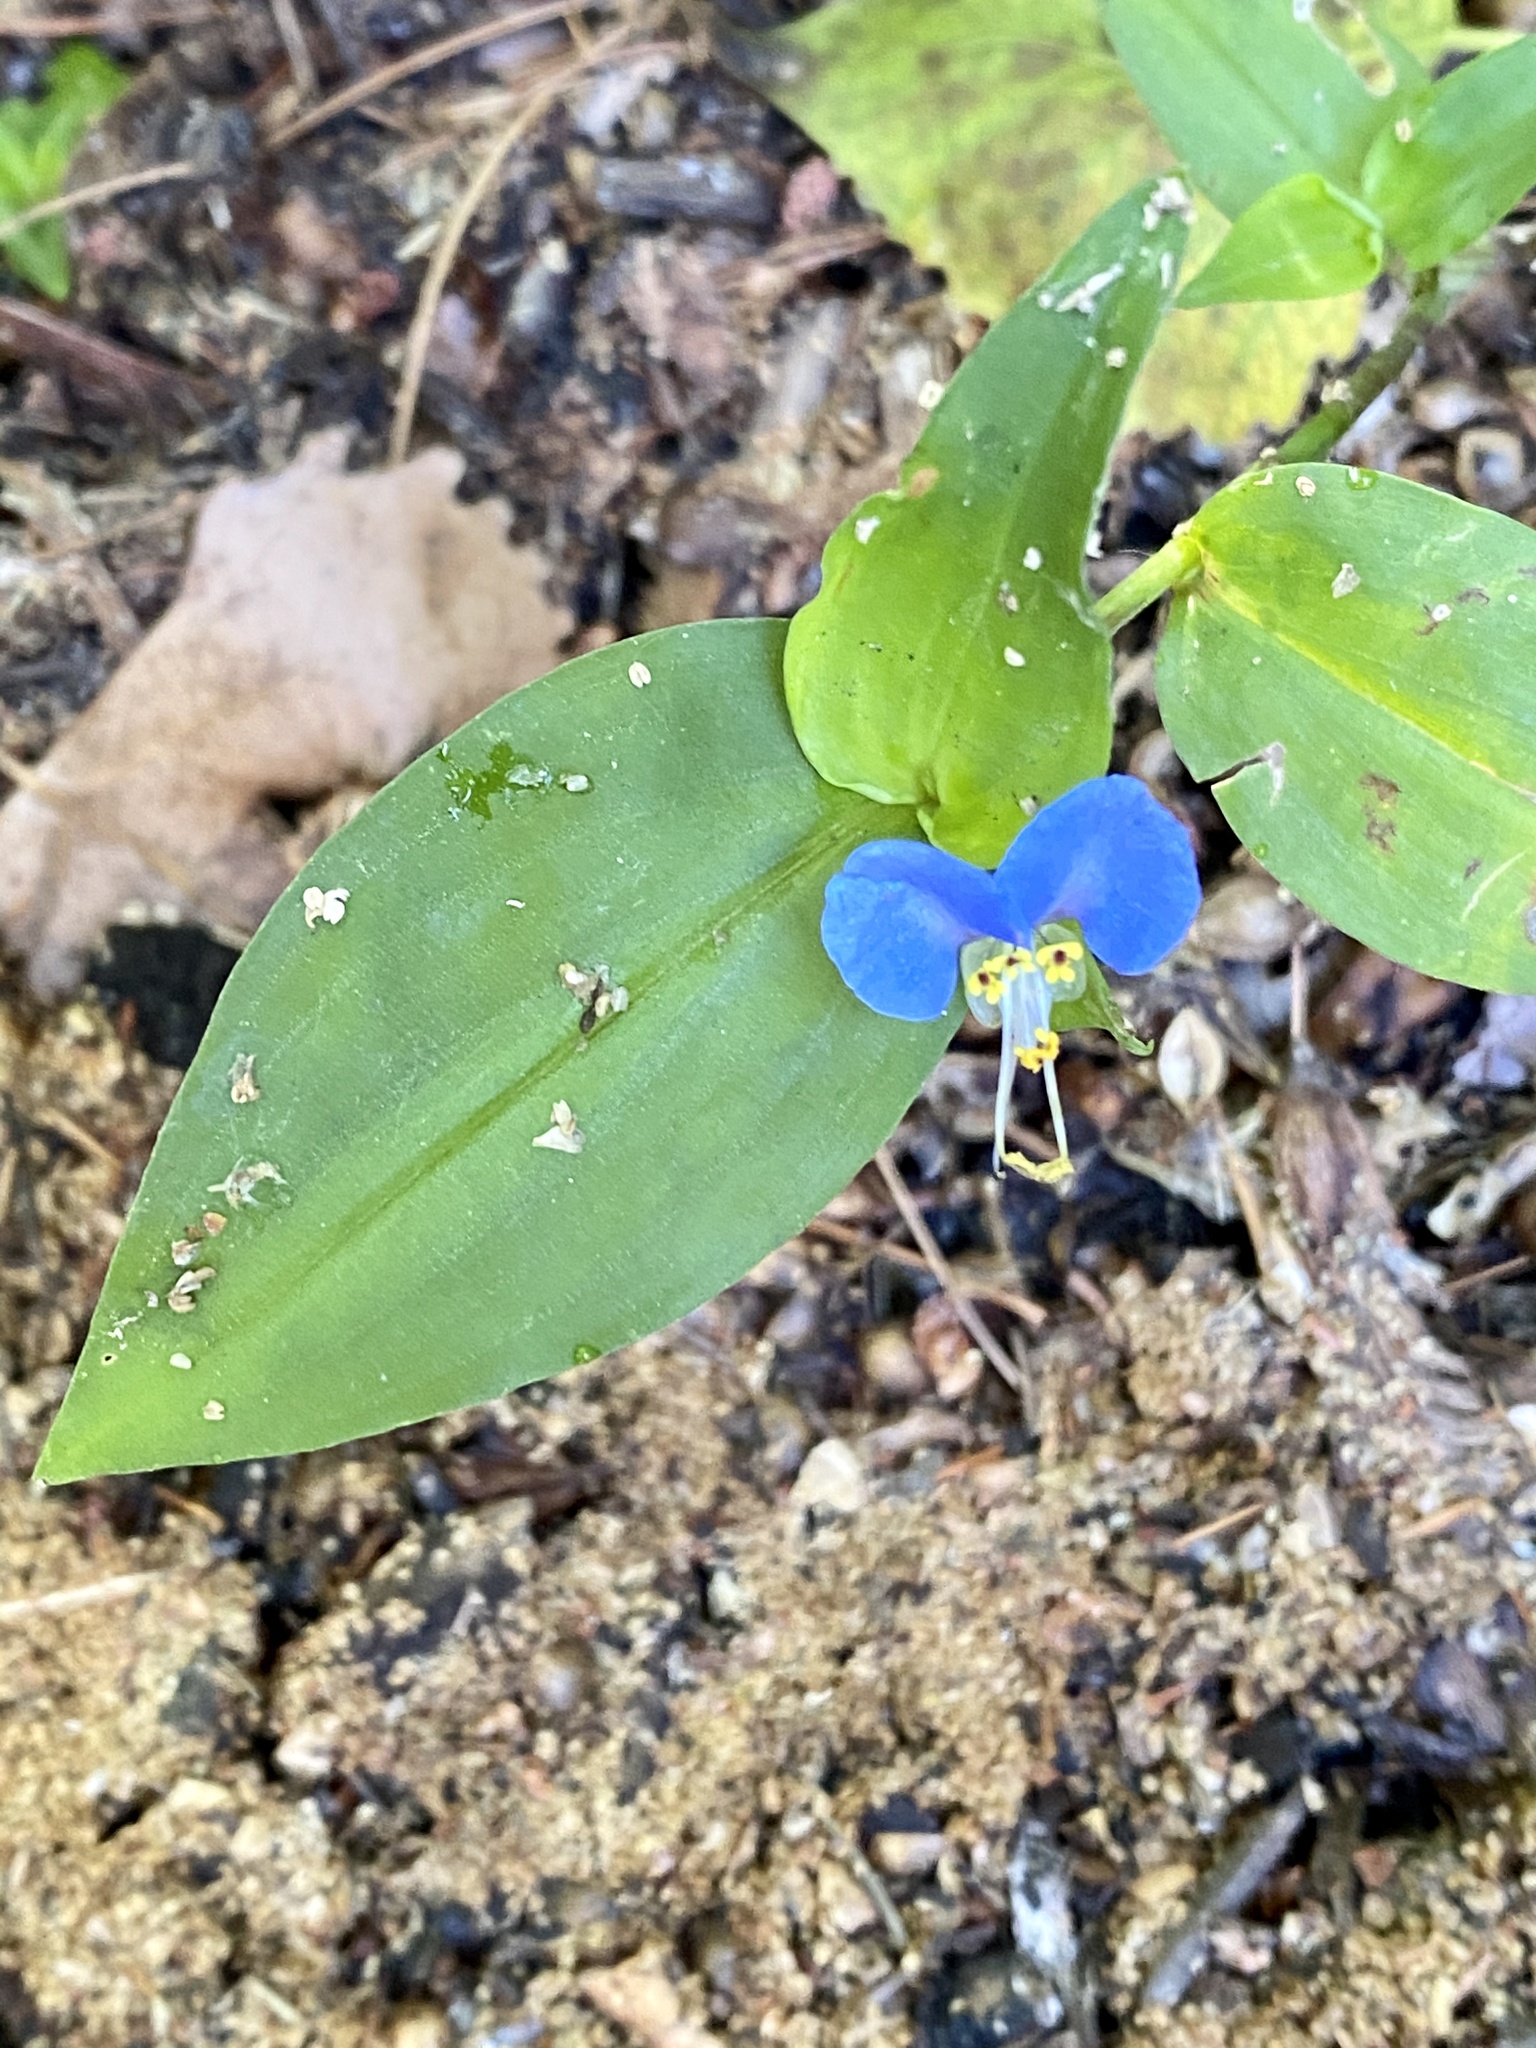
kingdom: Plantae
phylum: Tracheophyta
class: Liliopsida
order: Commelinales
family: Commelinaceae
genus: Commelina
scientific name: Commelina communis
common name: Asiatic dayflower
